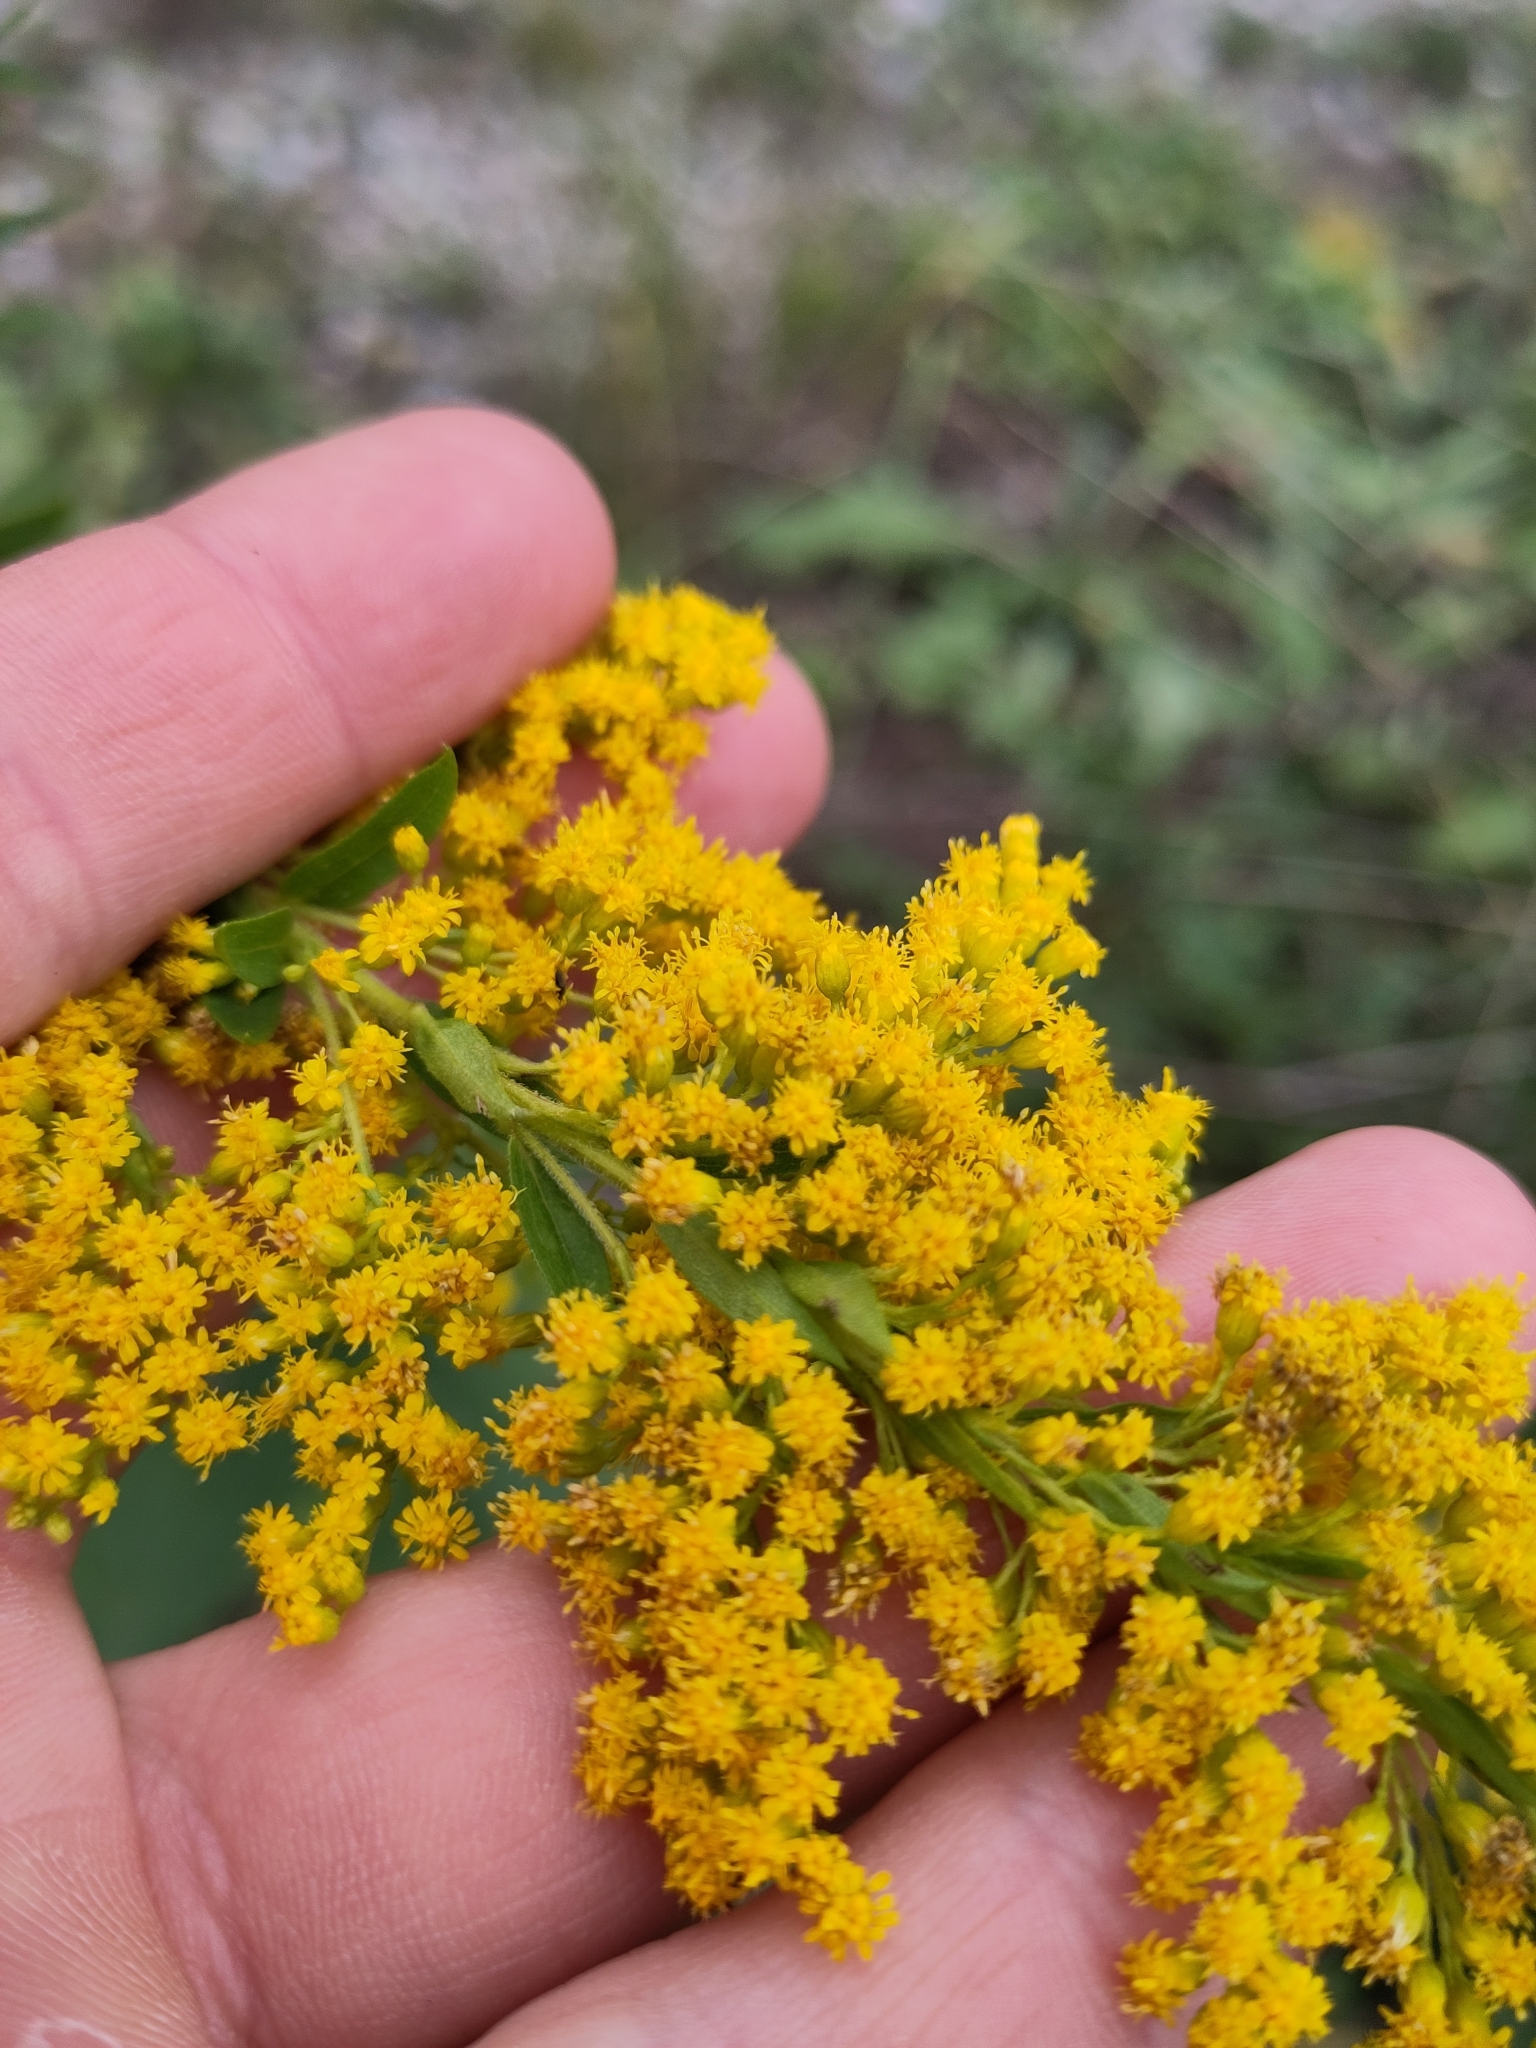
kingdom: Plantae
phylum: Tracheophyta
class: Magnoliopsida
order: Asterales
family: Asteraceae
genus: Solidago
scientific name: Solidago canadensis
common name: Canada goldenrod
